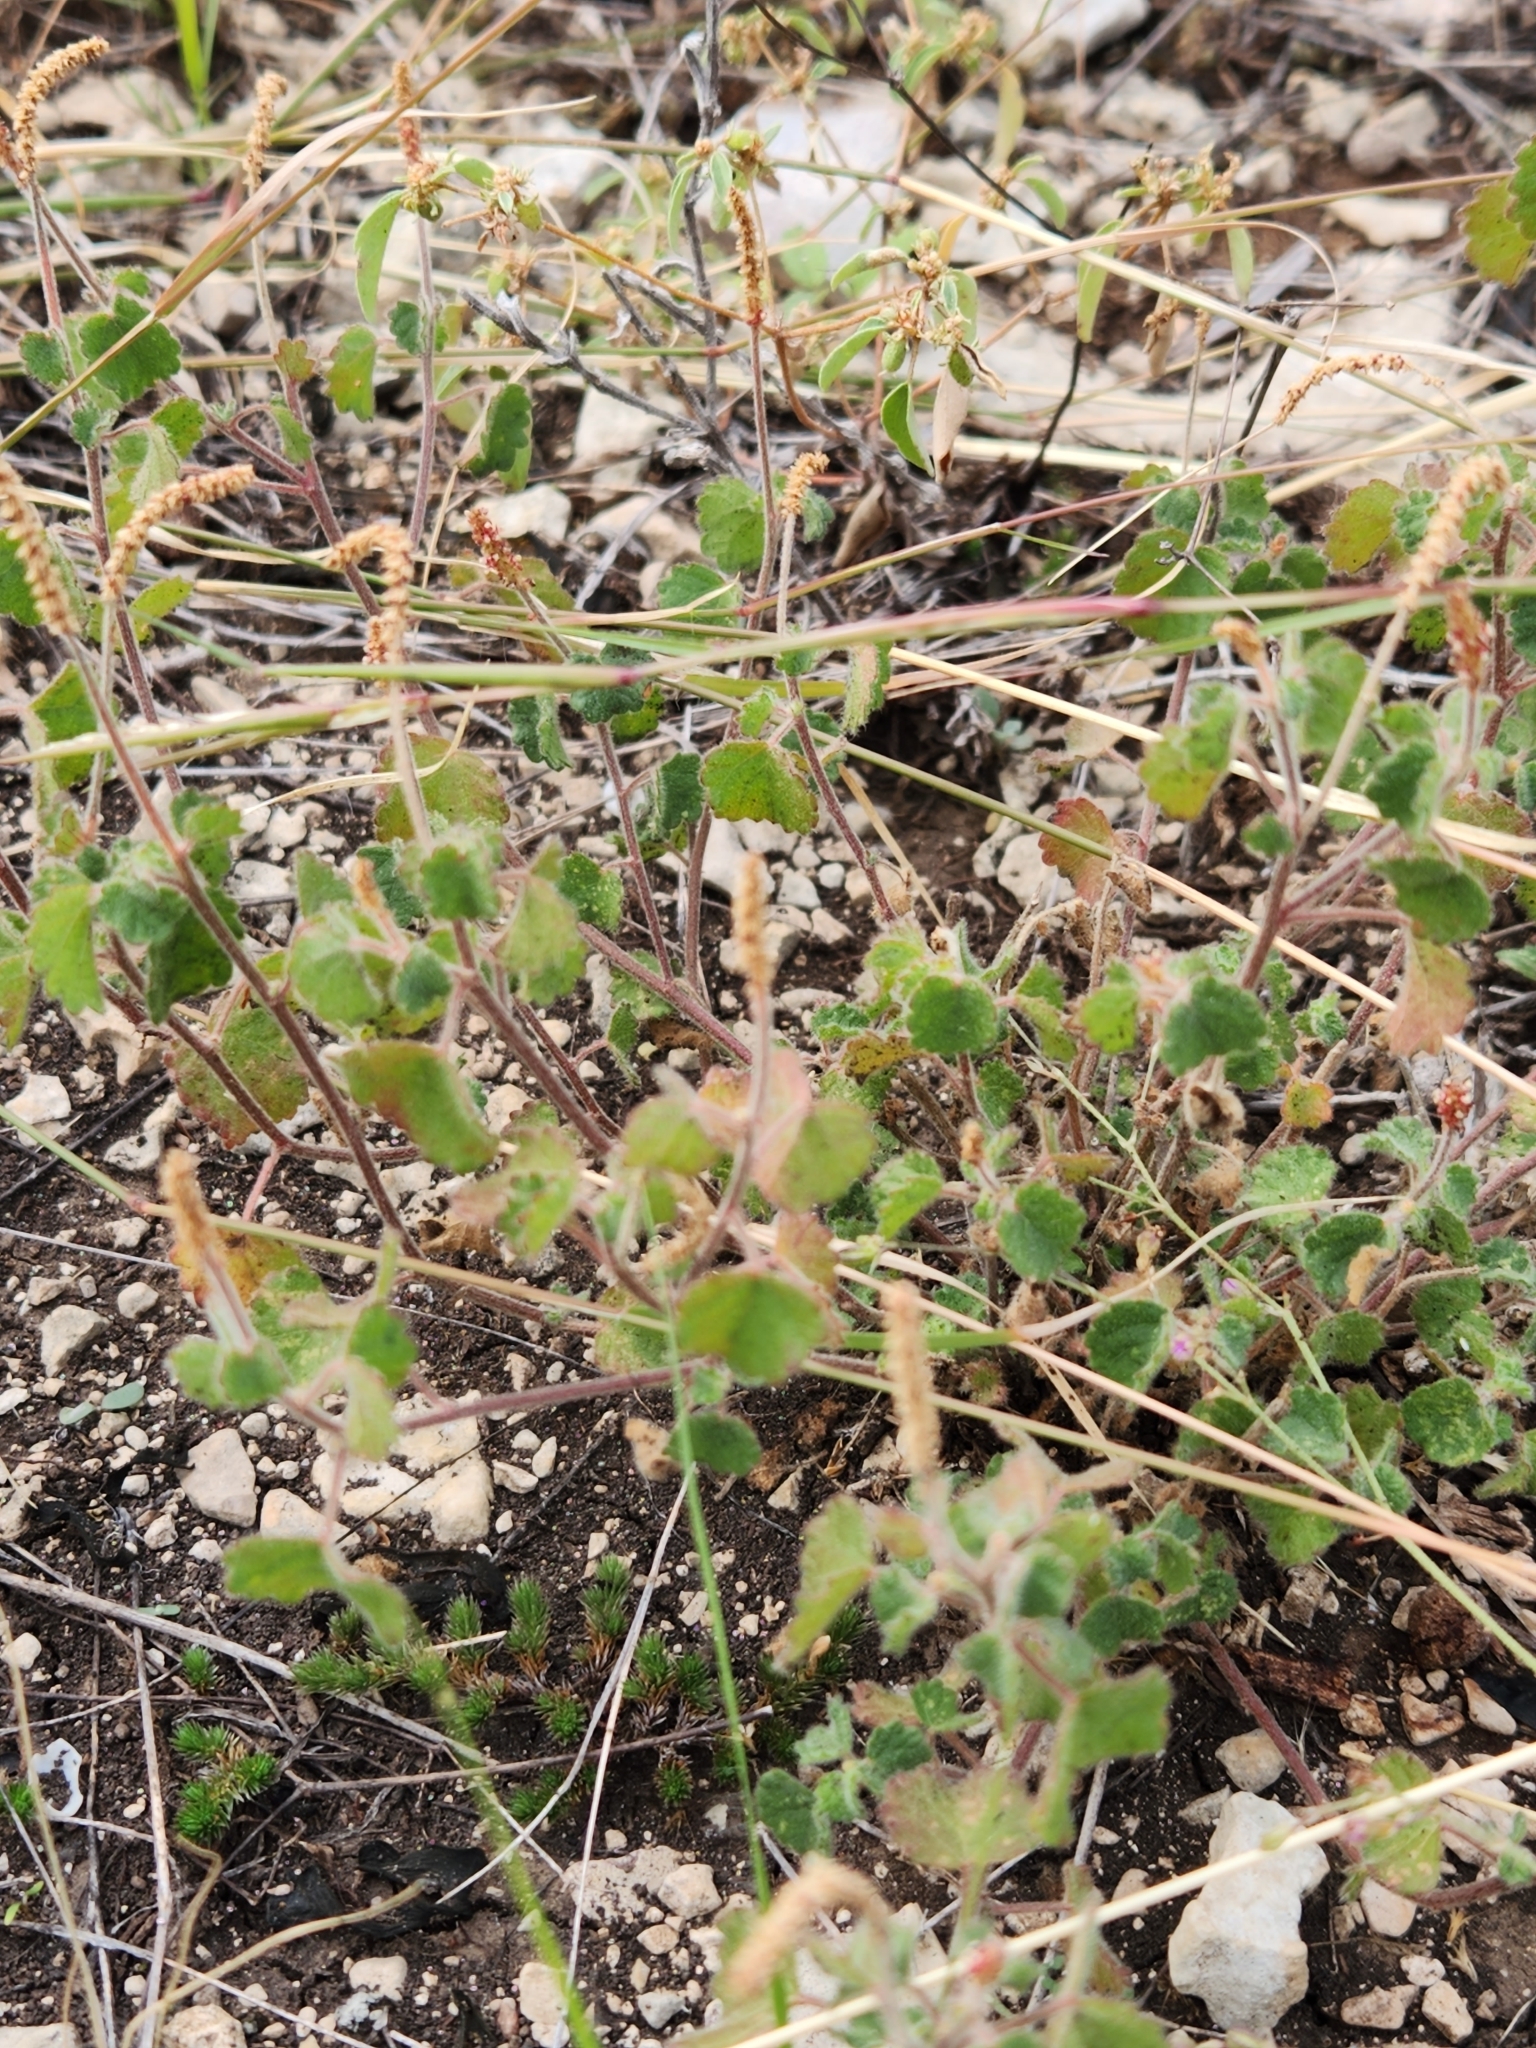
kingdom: Plantae
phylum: Tracheophyta
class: Magnoliopsida
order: Malpighiales
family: Euphorbiaceae
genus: Acalypha
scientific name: Acalypha monostachya
